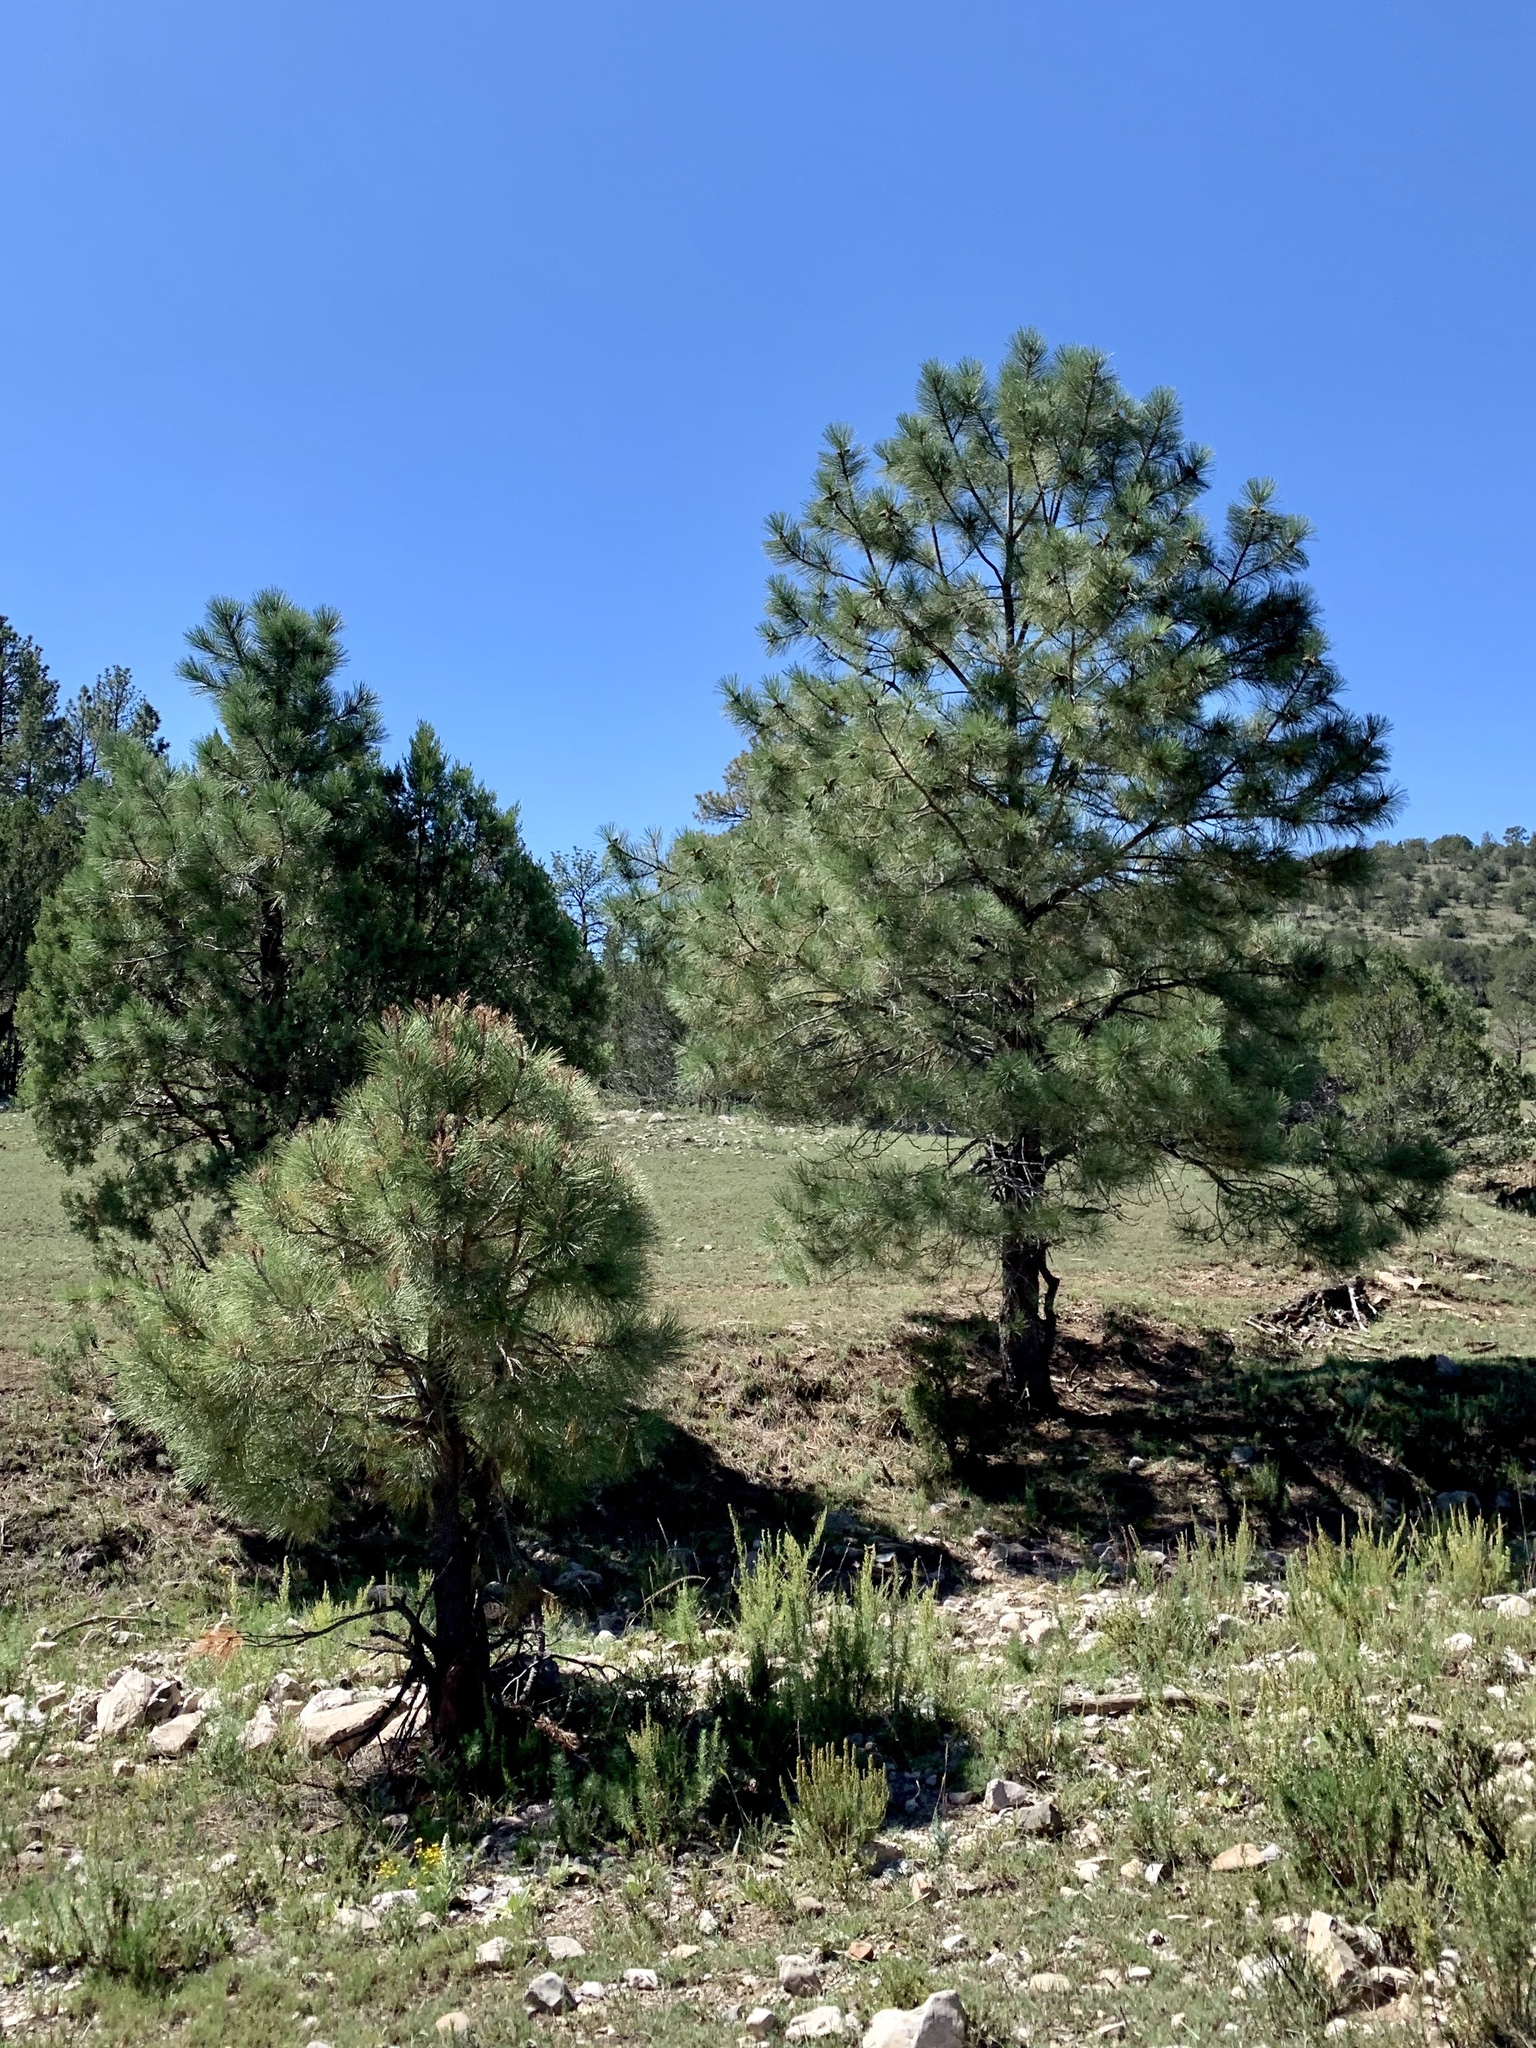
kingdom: Plantae
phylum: Tracheophyta
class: Pinopsida
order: Pinales
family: Pinaceae
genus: Pinus
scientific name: Pinus ponderosa
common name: Western yellow-pine
